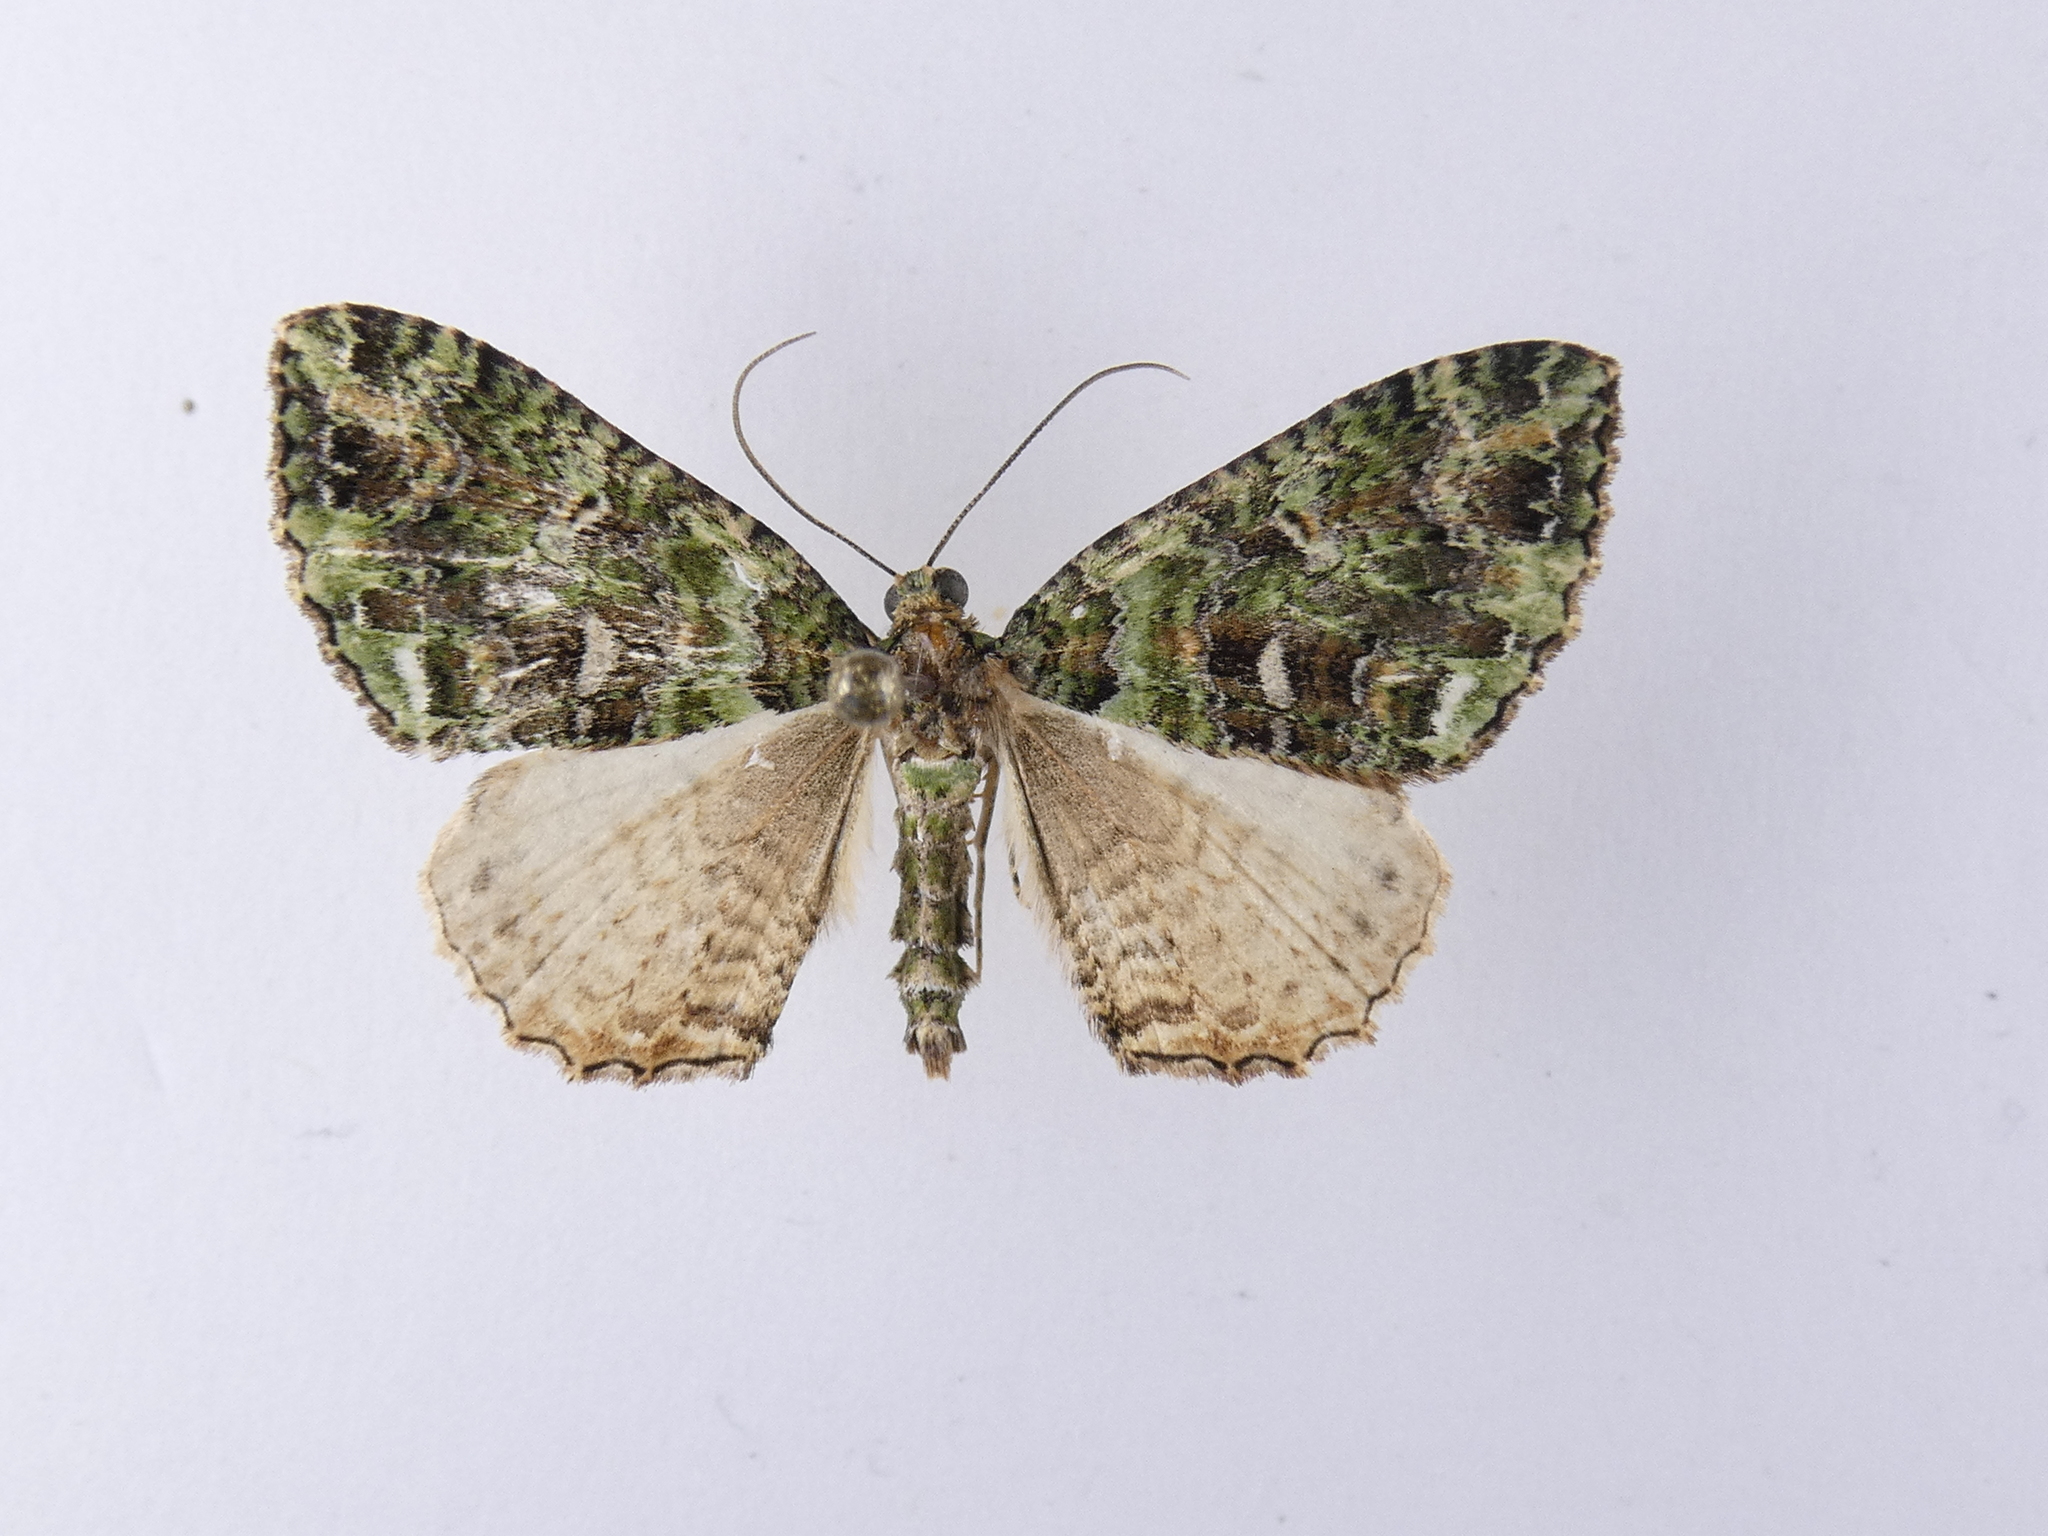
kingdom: Animalia
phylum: Arthropoda
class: Insecta
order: Lepidoptera
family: Geometridae
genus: Austrocidaria
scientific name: Austrocidaria similata
